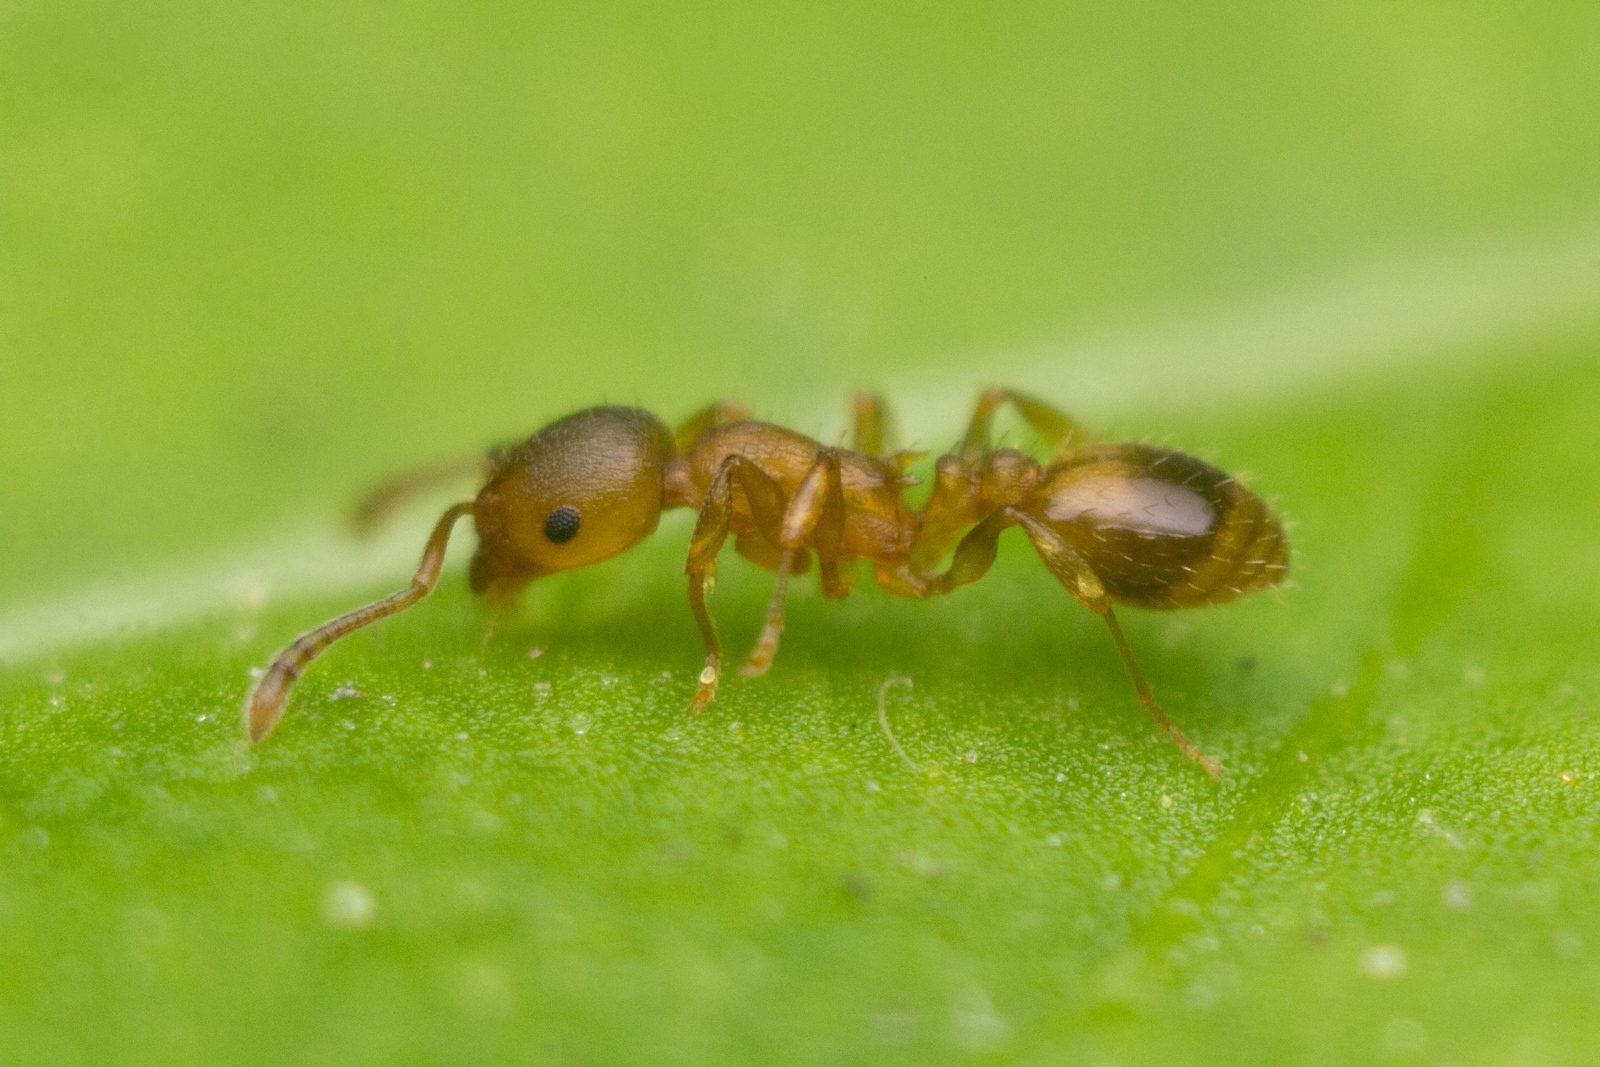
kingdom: Animalia
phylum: Arthropoda
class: Insecta
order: Hymenoptera
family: Formicidae
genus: Temnothorax
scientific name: Temnothorax crassispinus
